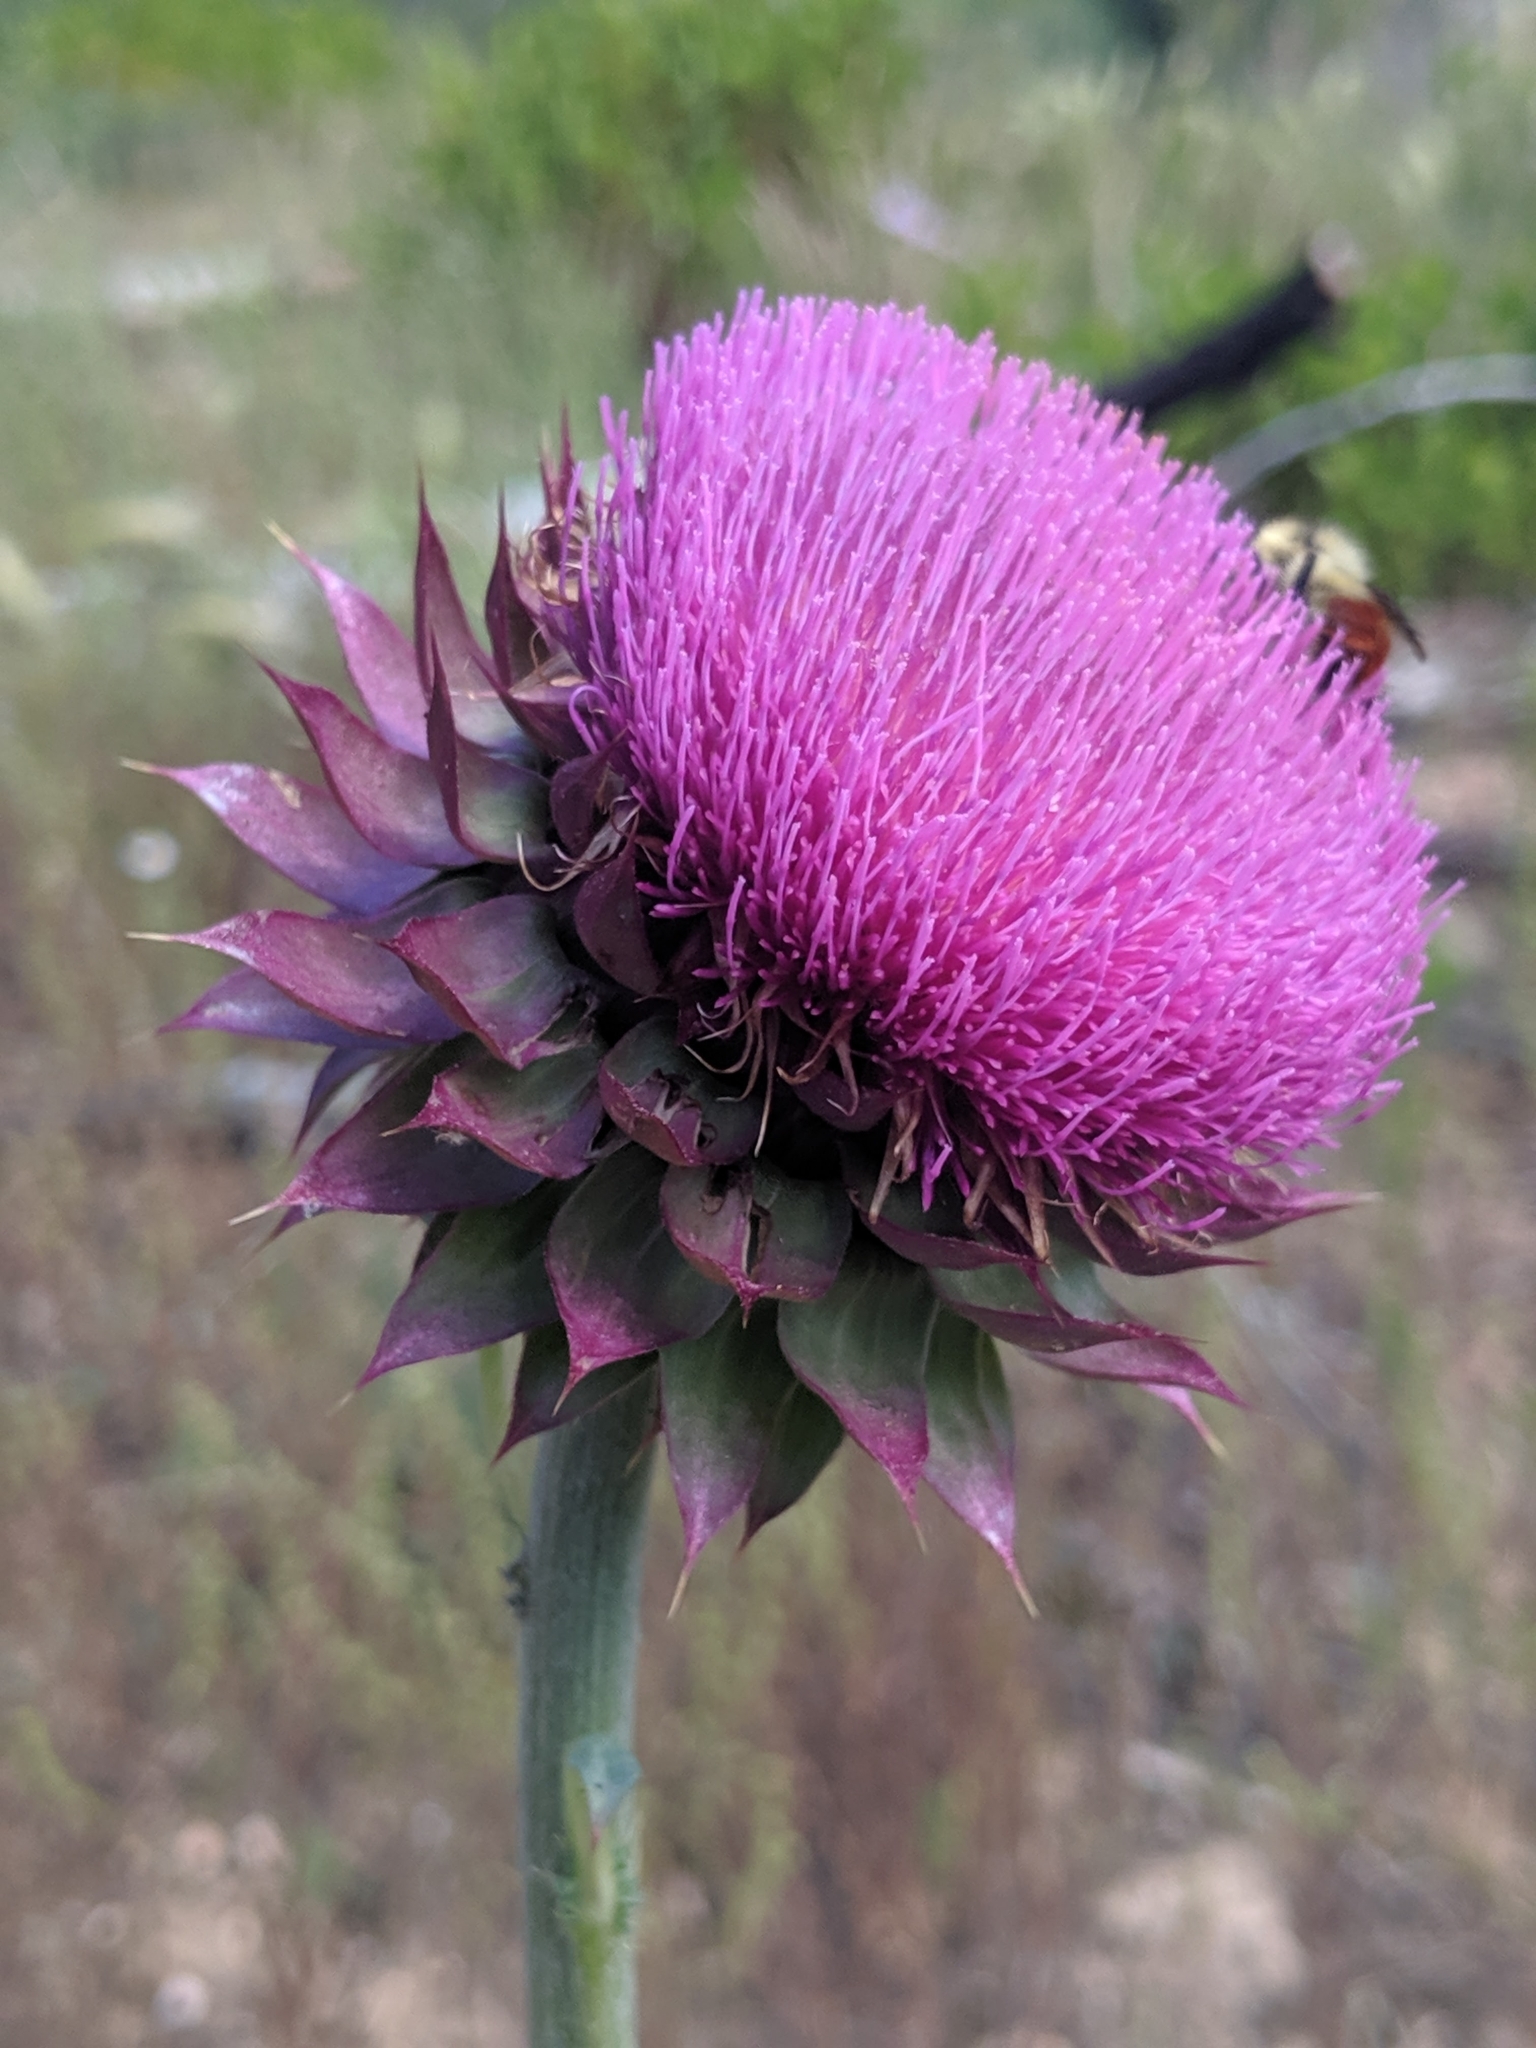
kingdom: Plantae
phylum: Tracheophyta
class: Magnoliopsida
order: Asterales
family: Asteraceae
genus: Carduus
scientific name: Carduus nutans
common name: Musk thistle
